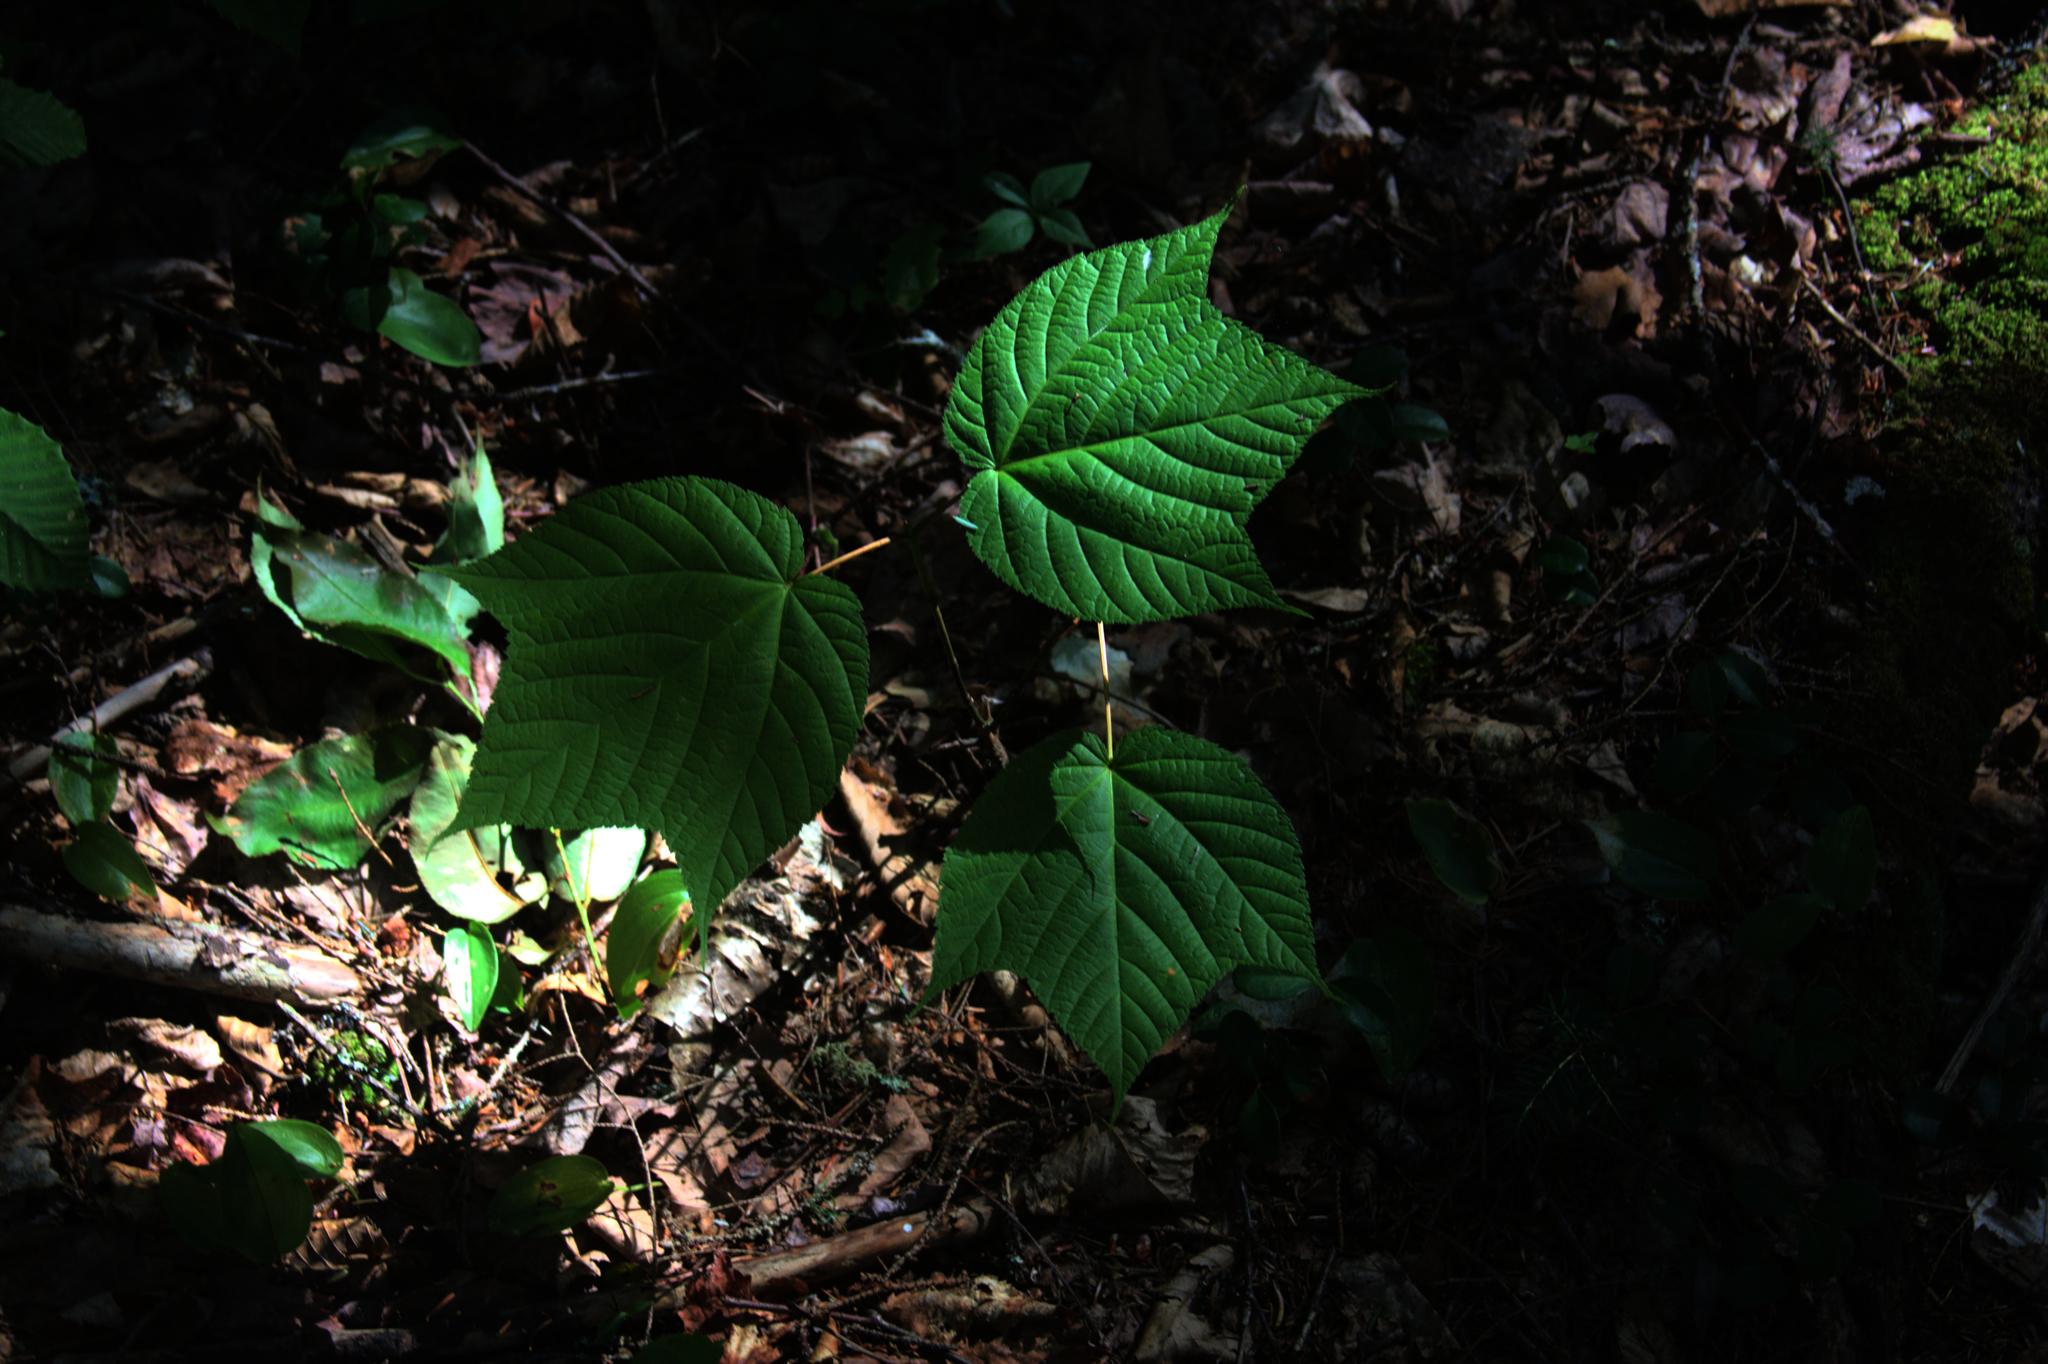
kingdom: Plantae
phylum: Tracheophyta
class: Magnoliopsida
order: Sapindales
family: Sapindaceae
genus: Acer
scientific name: Acer pensylvanicum
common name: Moosewood
